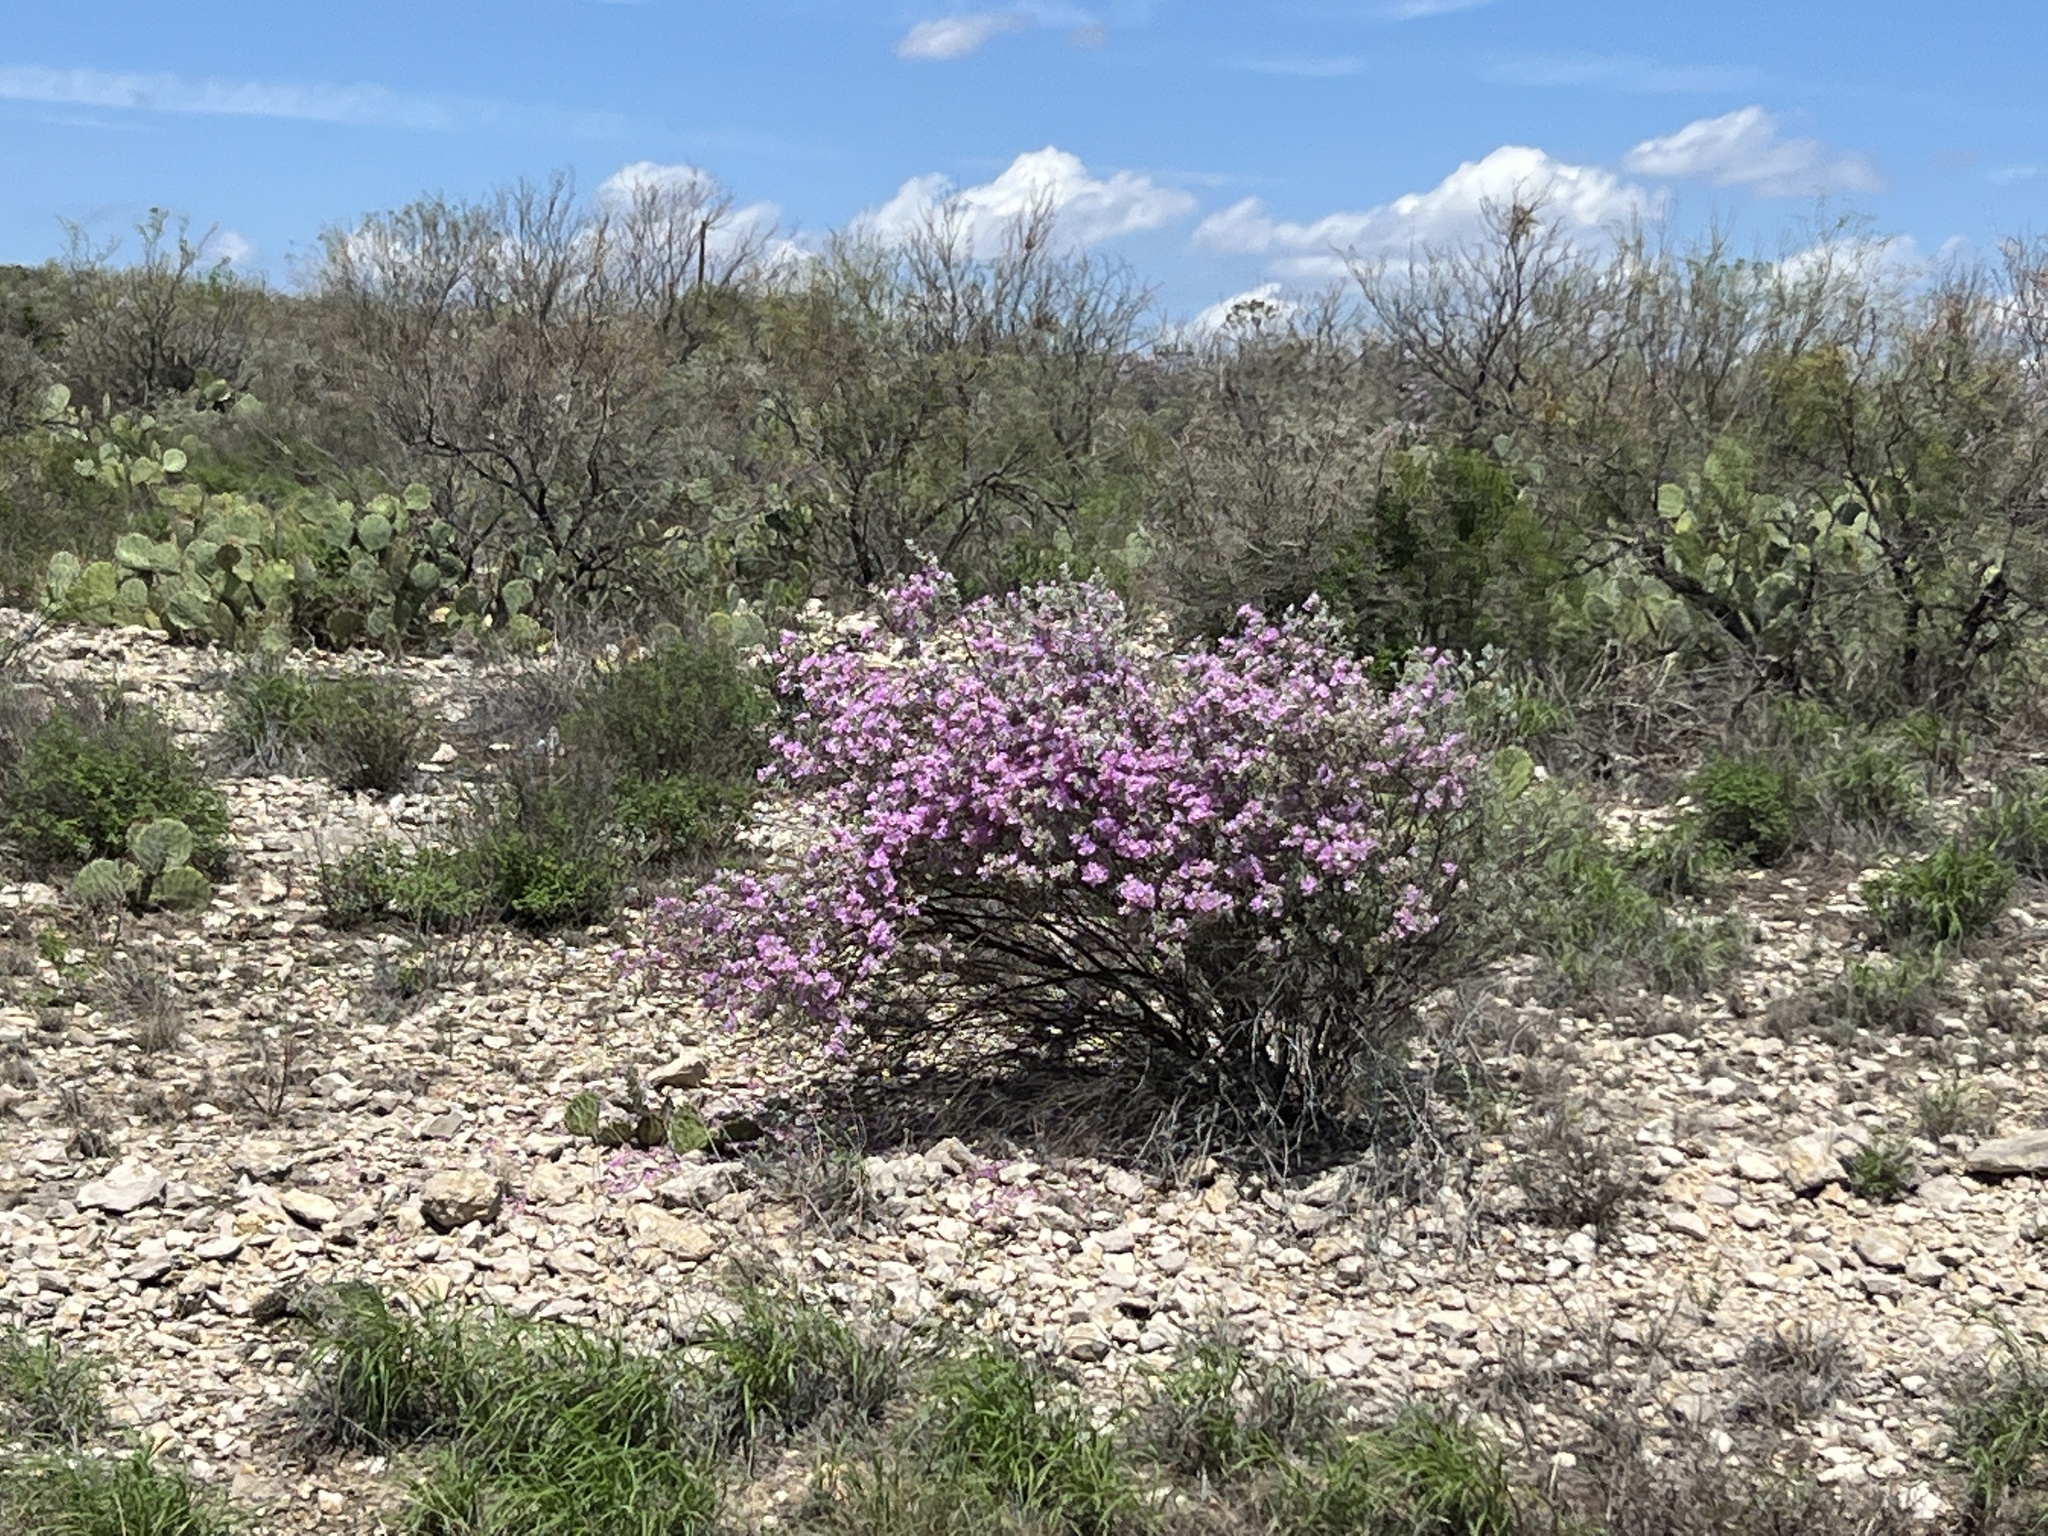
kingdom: Plantae
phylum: Tracheophyta
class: Magnoliopsida
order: Lamiales
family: Scrophulariaceae
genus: Leucophyllum
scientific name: Leucophyllum frutescens
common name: Texas silverleaf
